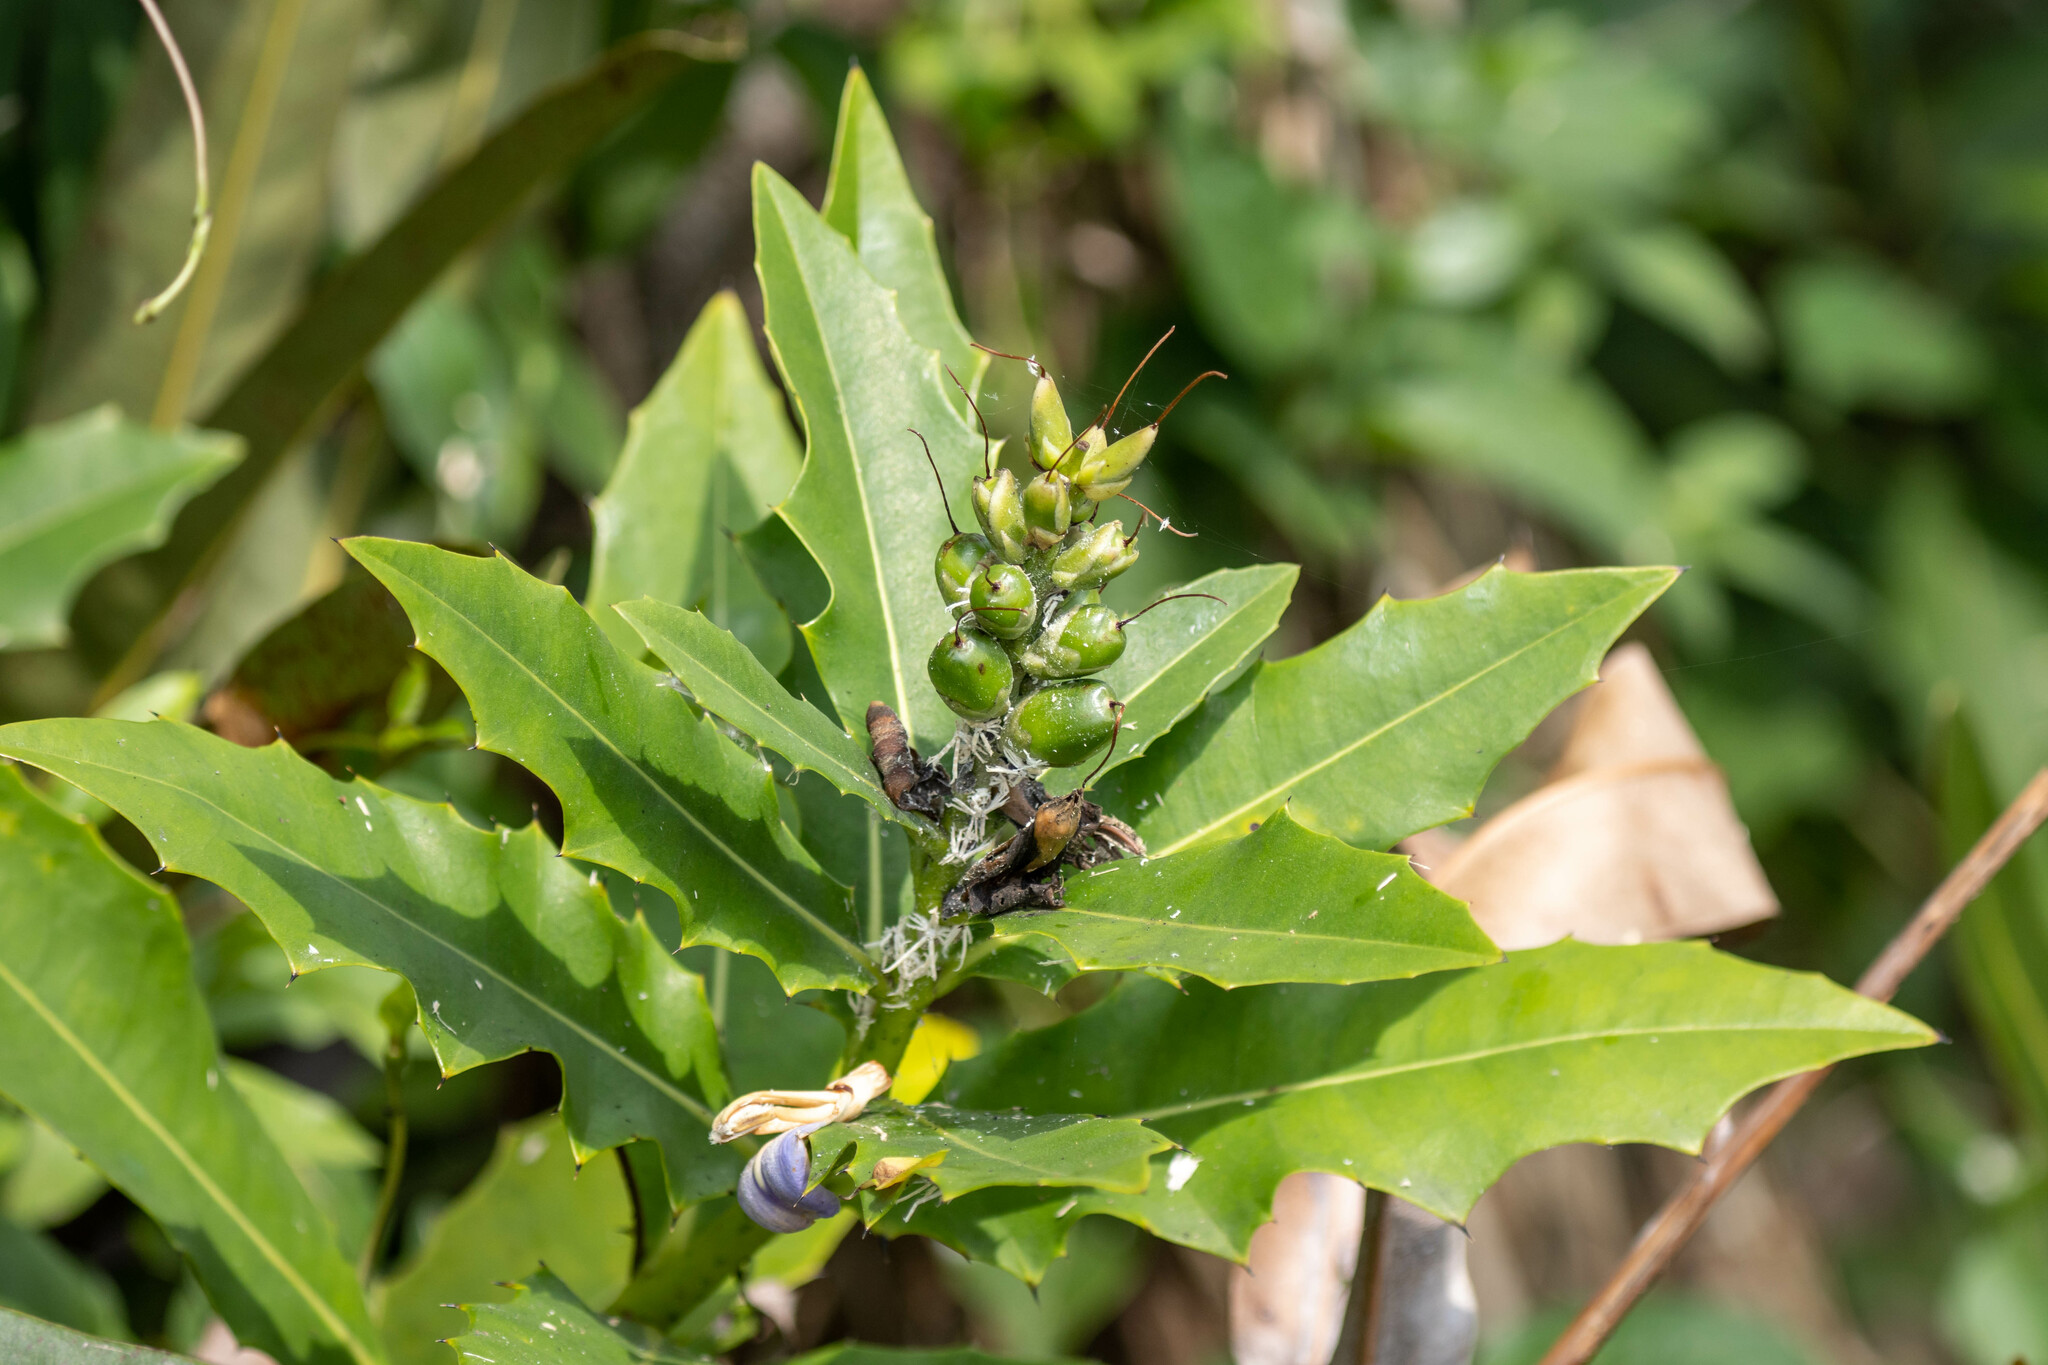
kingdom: Plantae
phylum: Tracheophyta
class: Magnoliopsida
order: Lamiales
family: Acanthaceae
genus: Acanthus
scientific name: Acanthus ilicifolius
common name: Holy mangrove
